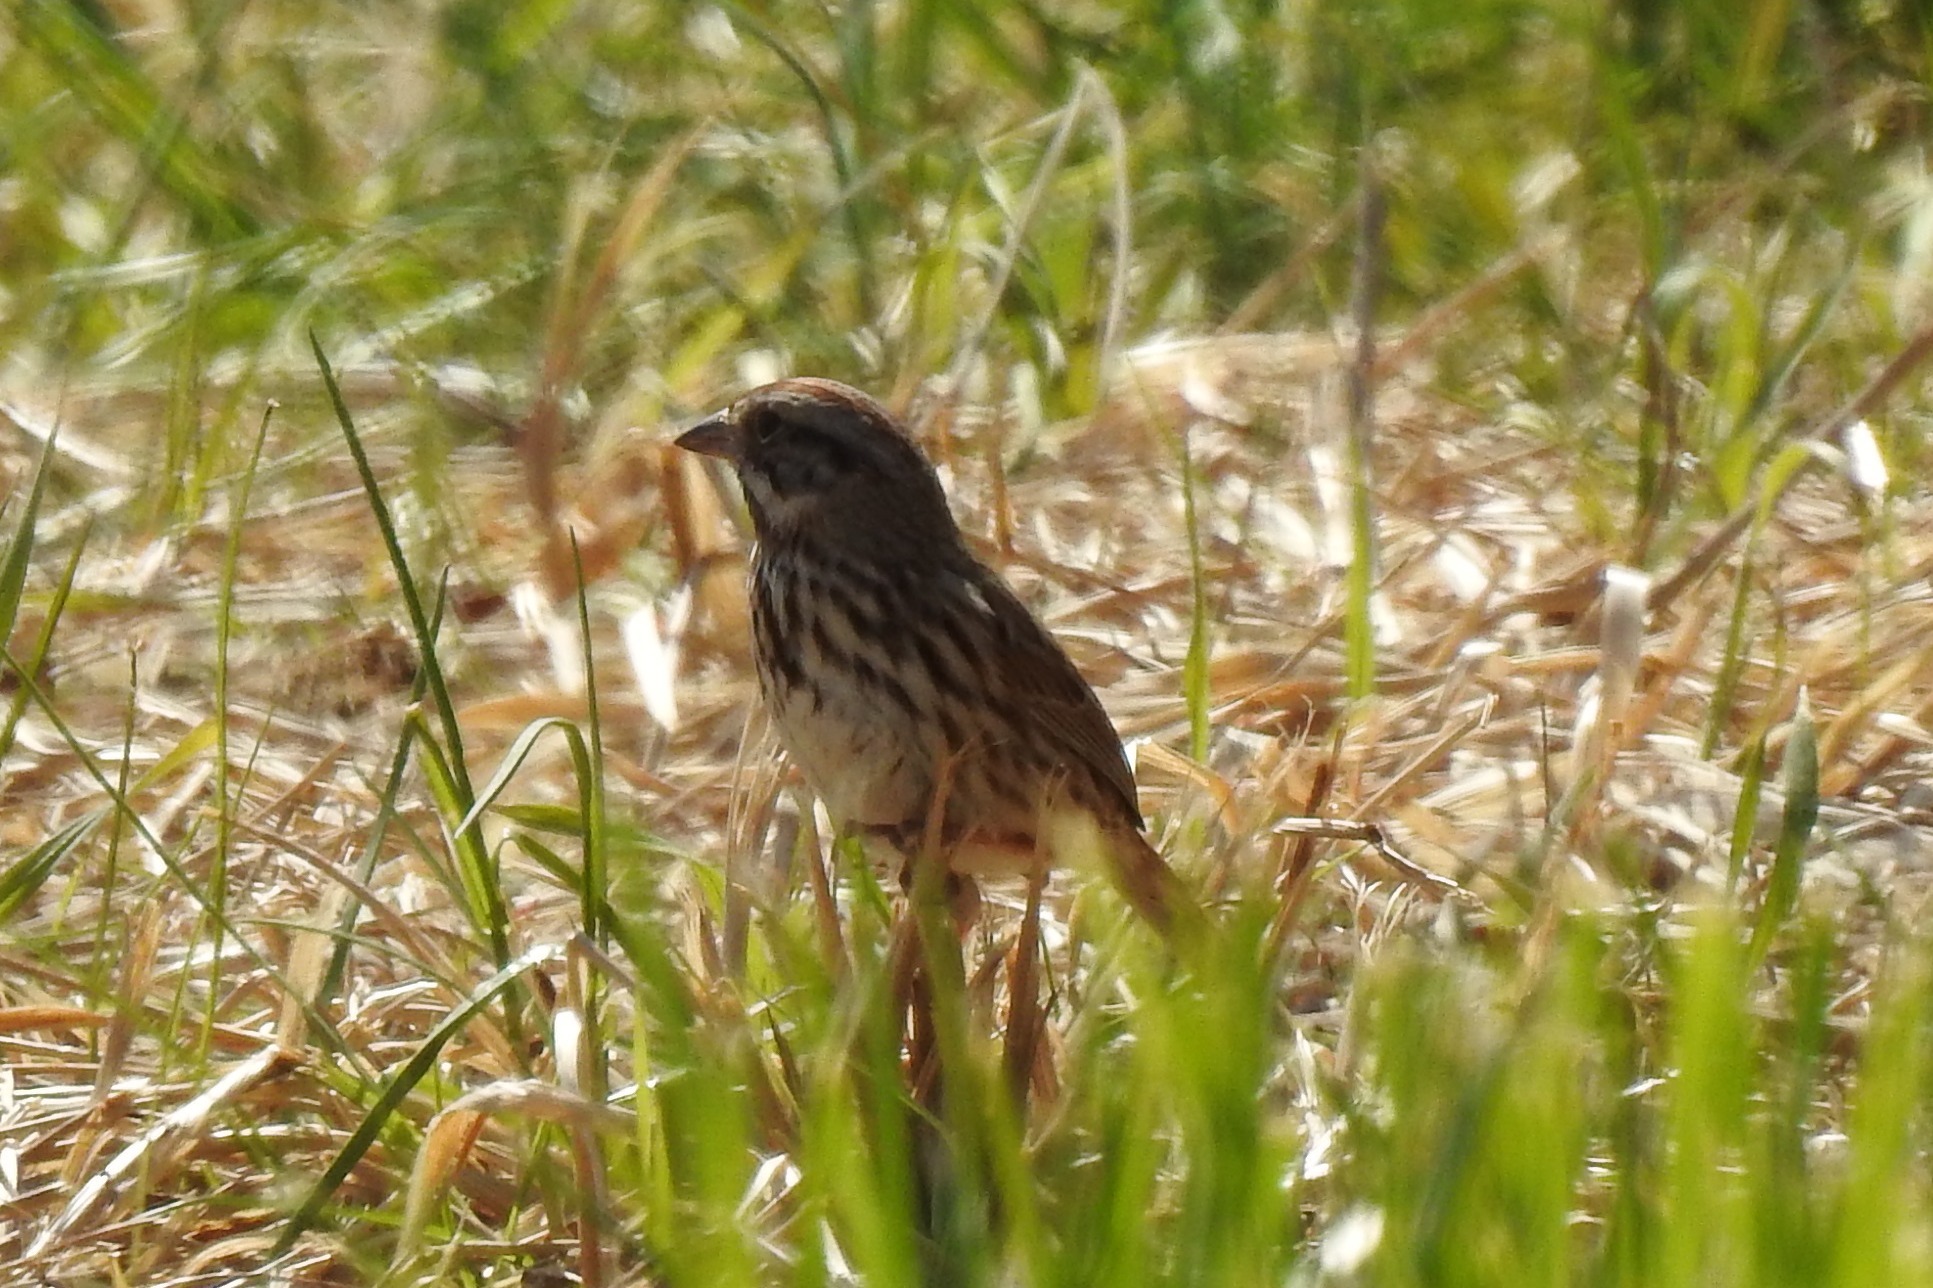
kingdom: Animalia
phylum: Chordata
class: Aves
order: Passeriformes
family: Passerellidae
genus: Melospiza
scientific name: Melospiza melodia
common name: Song sparrow
